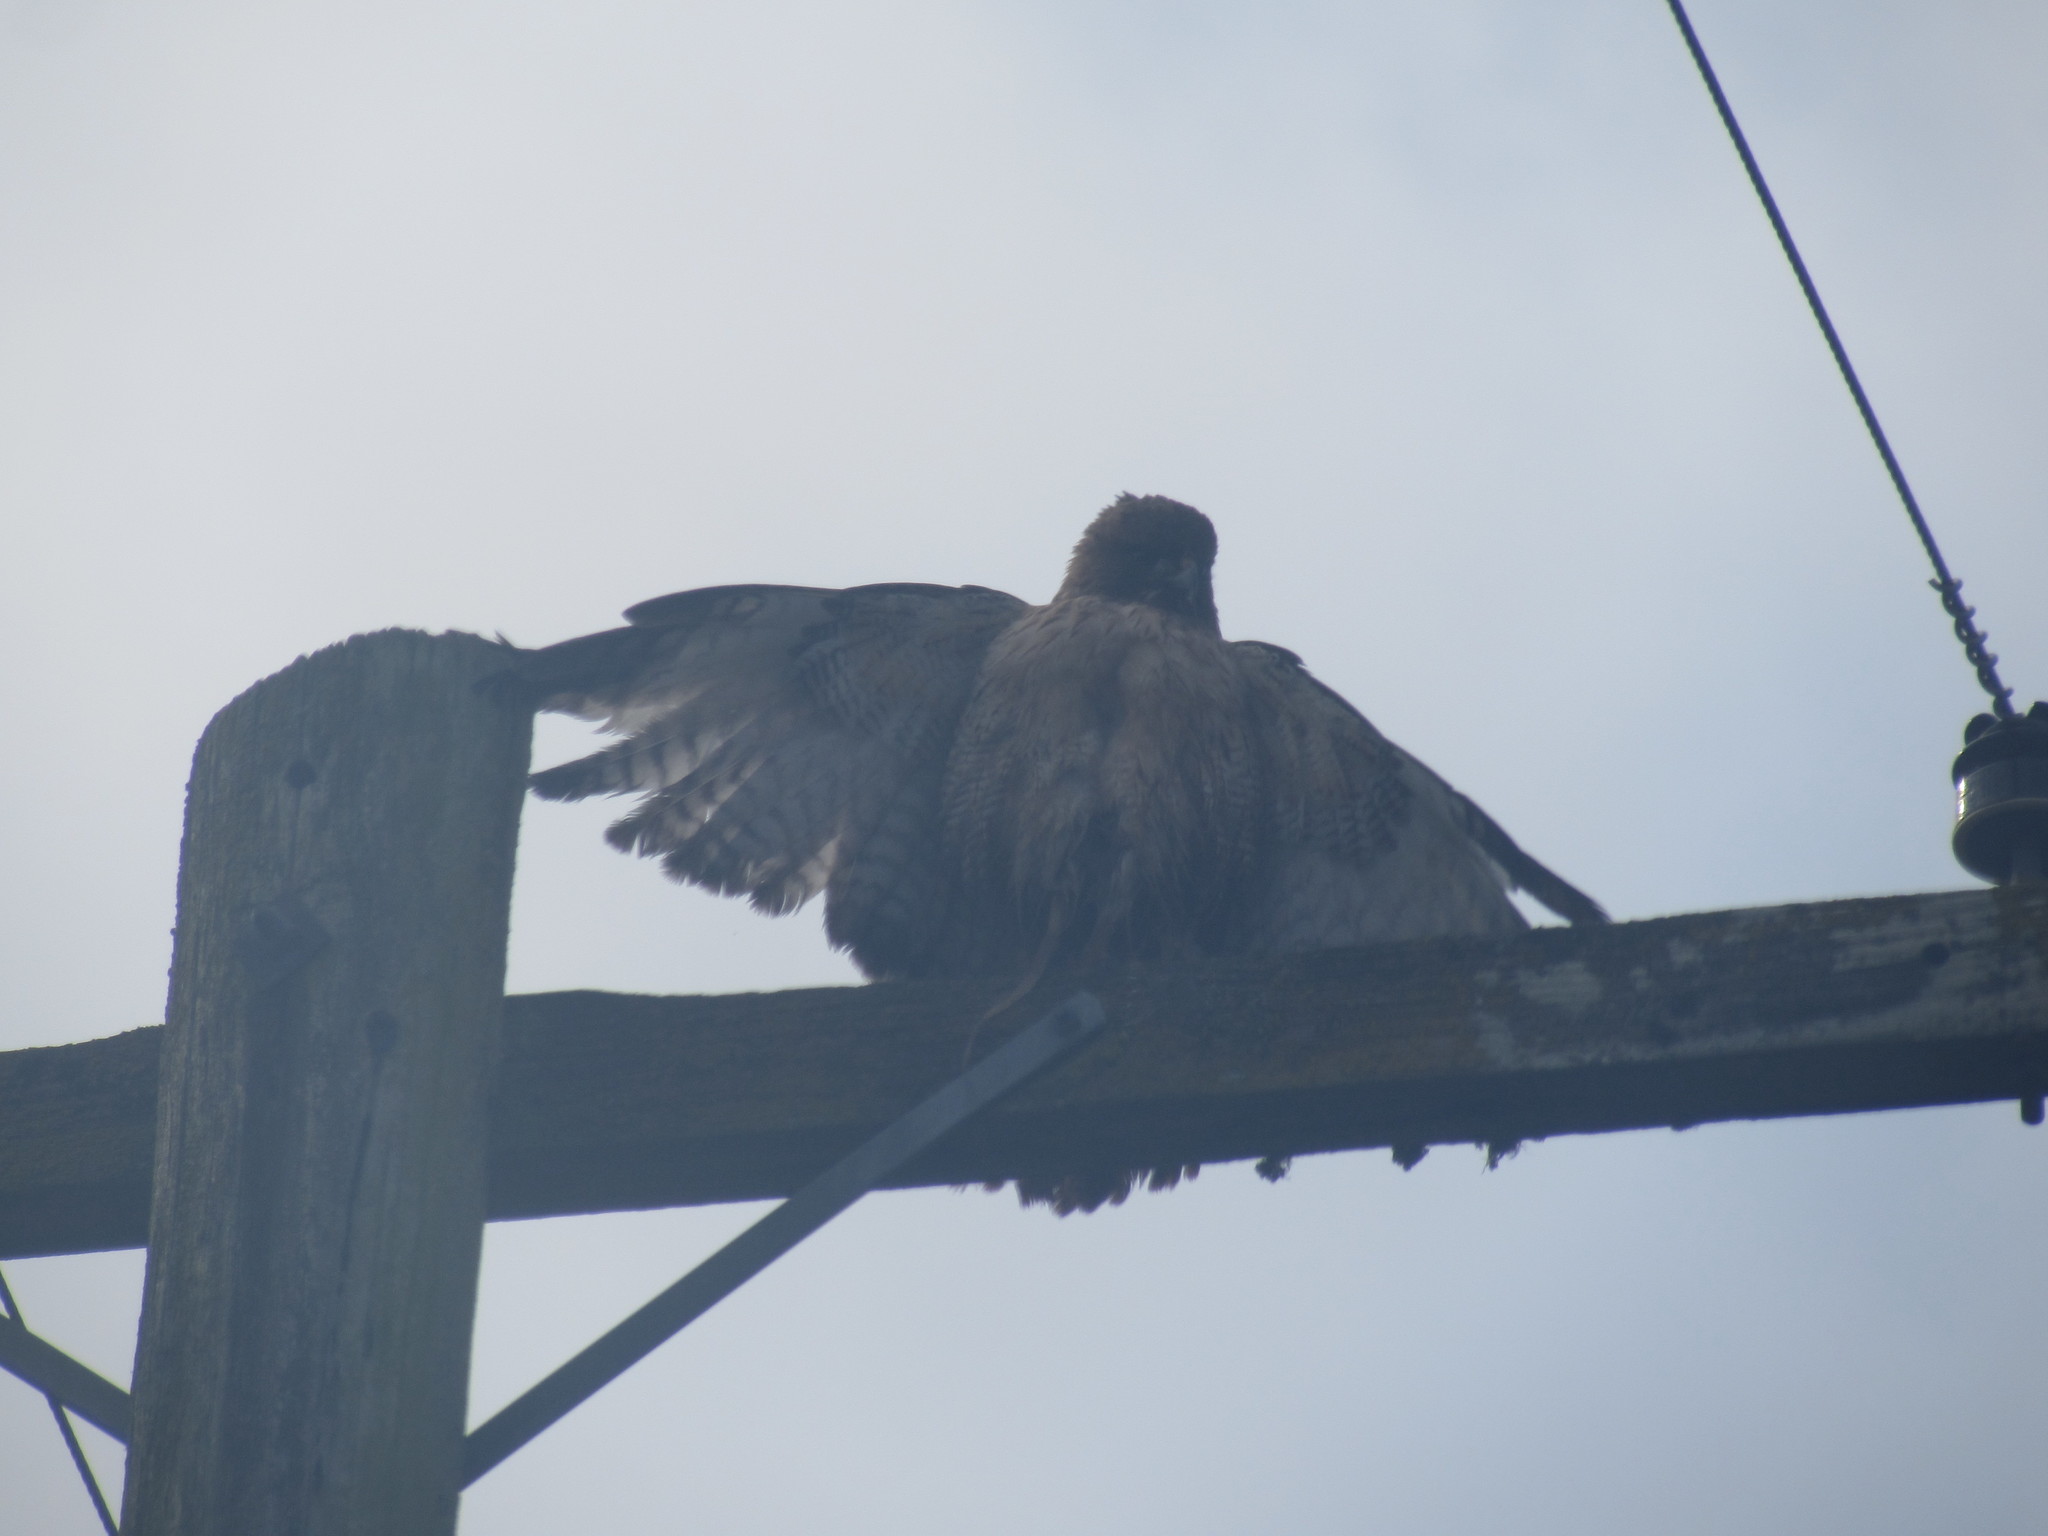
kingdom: Animalia
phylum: Chordata
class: Aves
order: Accipitriformes
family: Accipitridae
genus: Buteo
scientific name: Buteo jamaicensis
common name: Red-tailed hawk
